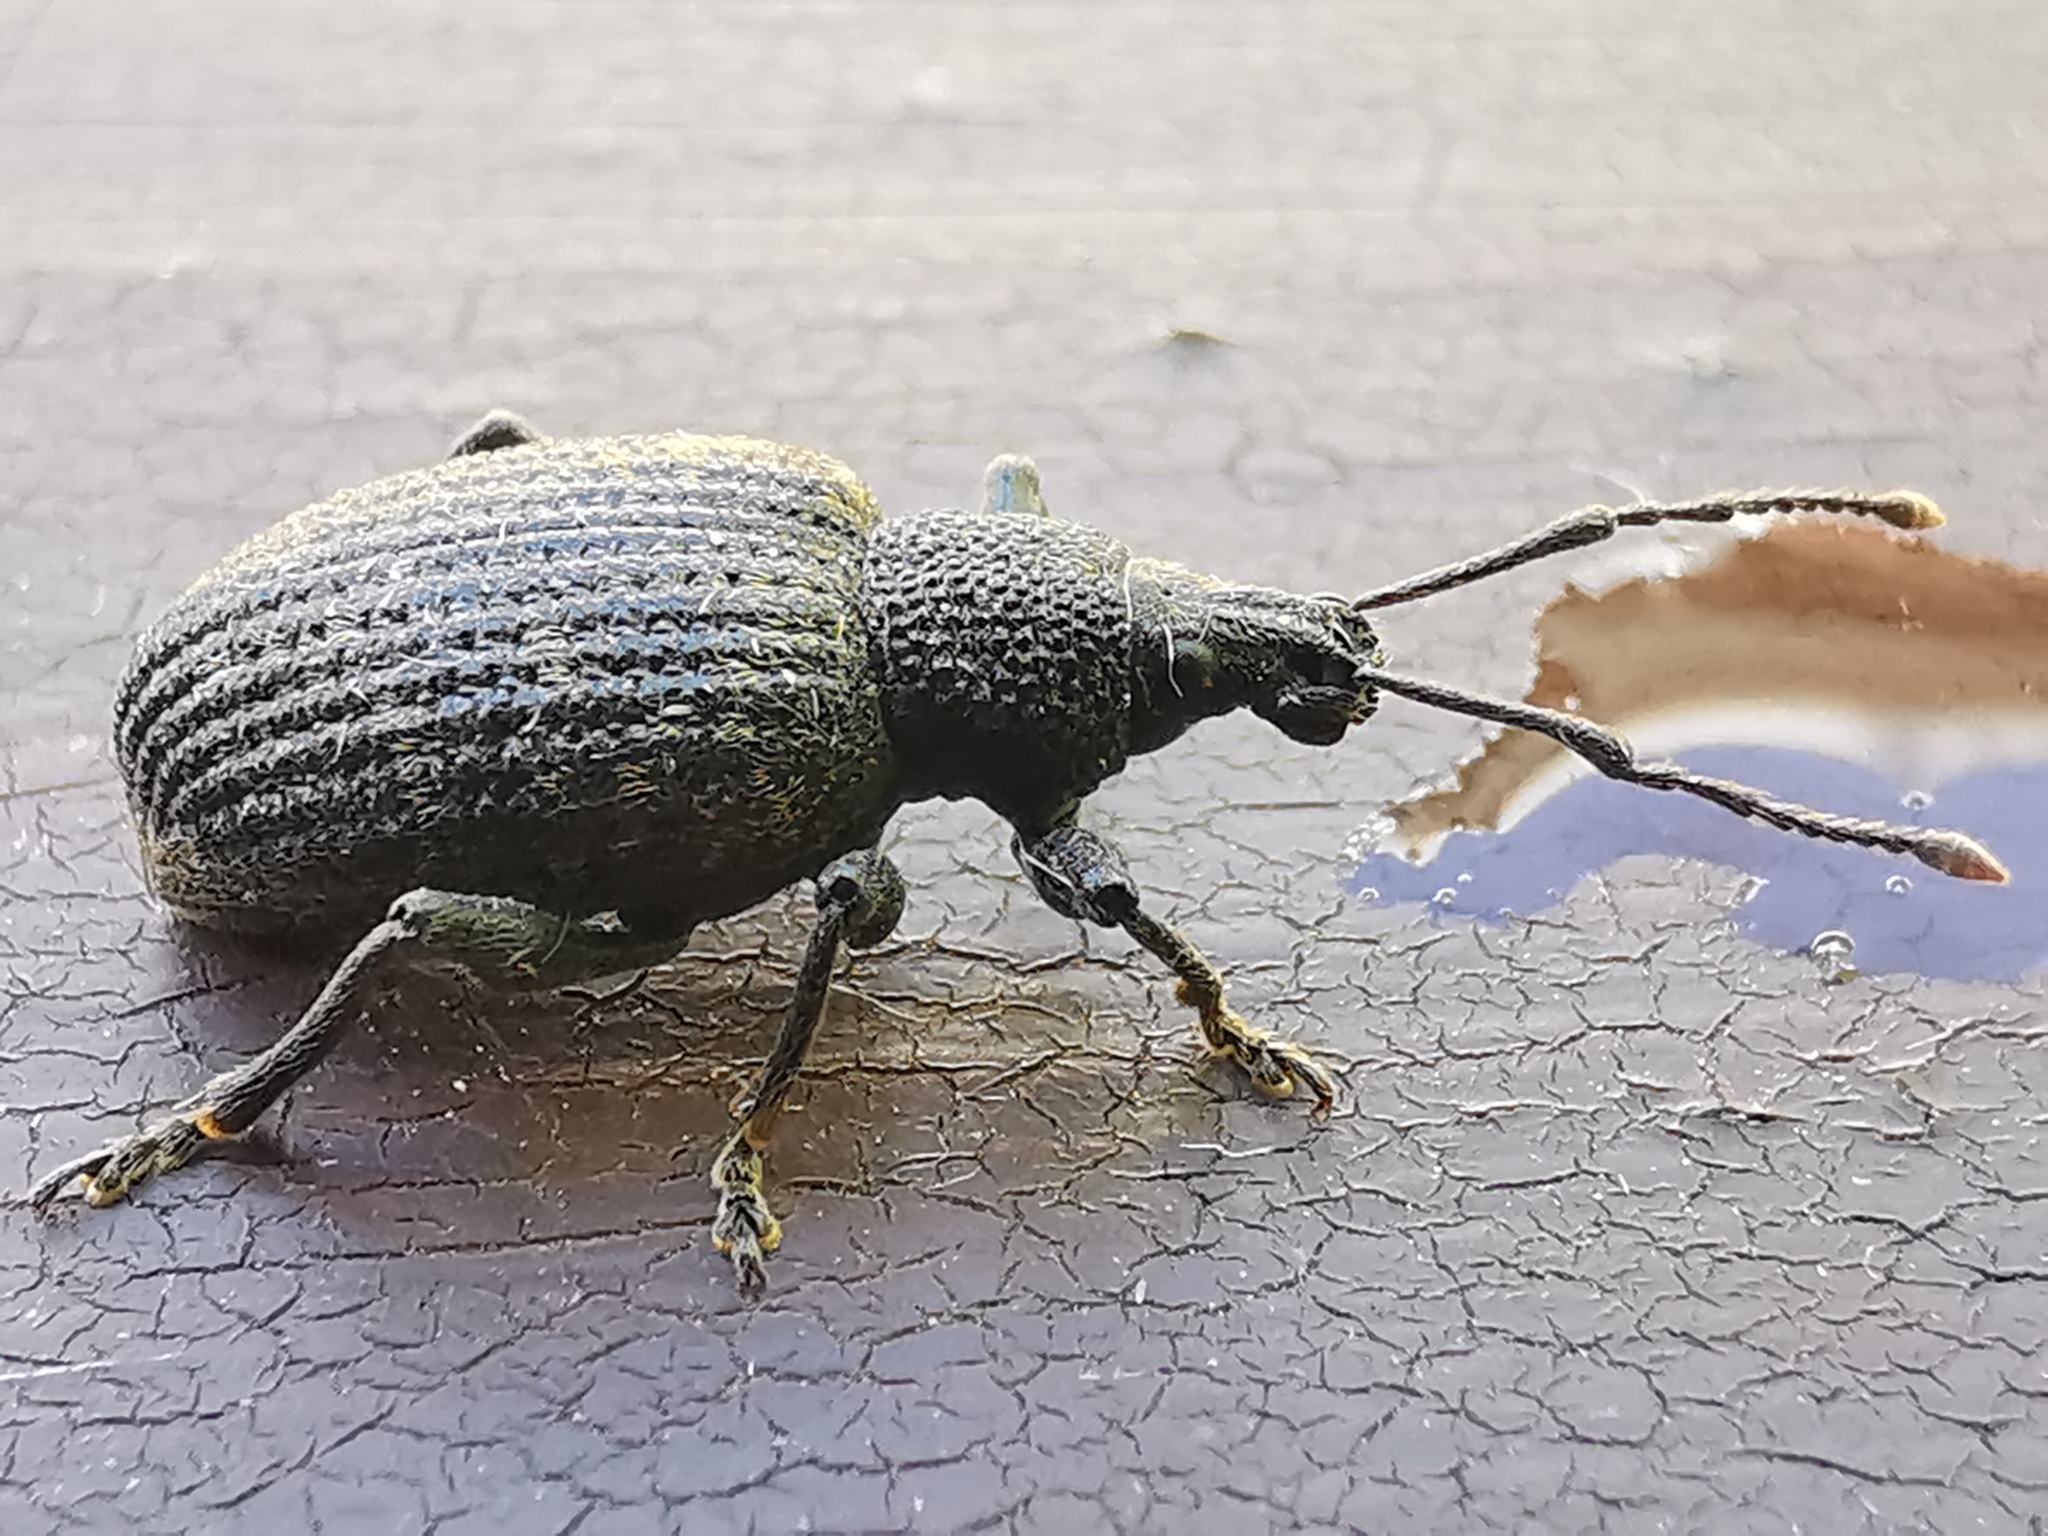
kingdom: Animalia
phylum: Arthropoda
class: Insecta
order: Coleoptera
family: Curculionidae
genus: Otiorhynchus
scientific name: Otiorhynchus sulcatus
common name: Black vine weevil
